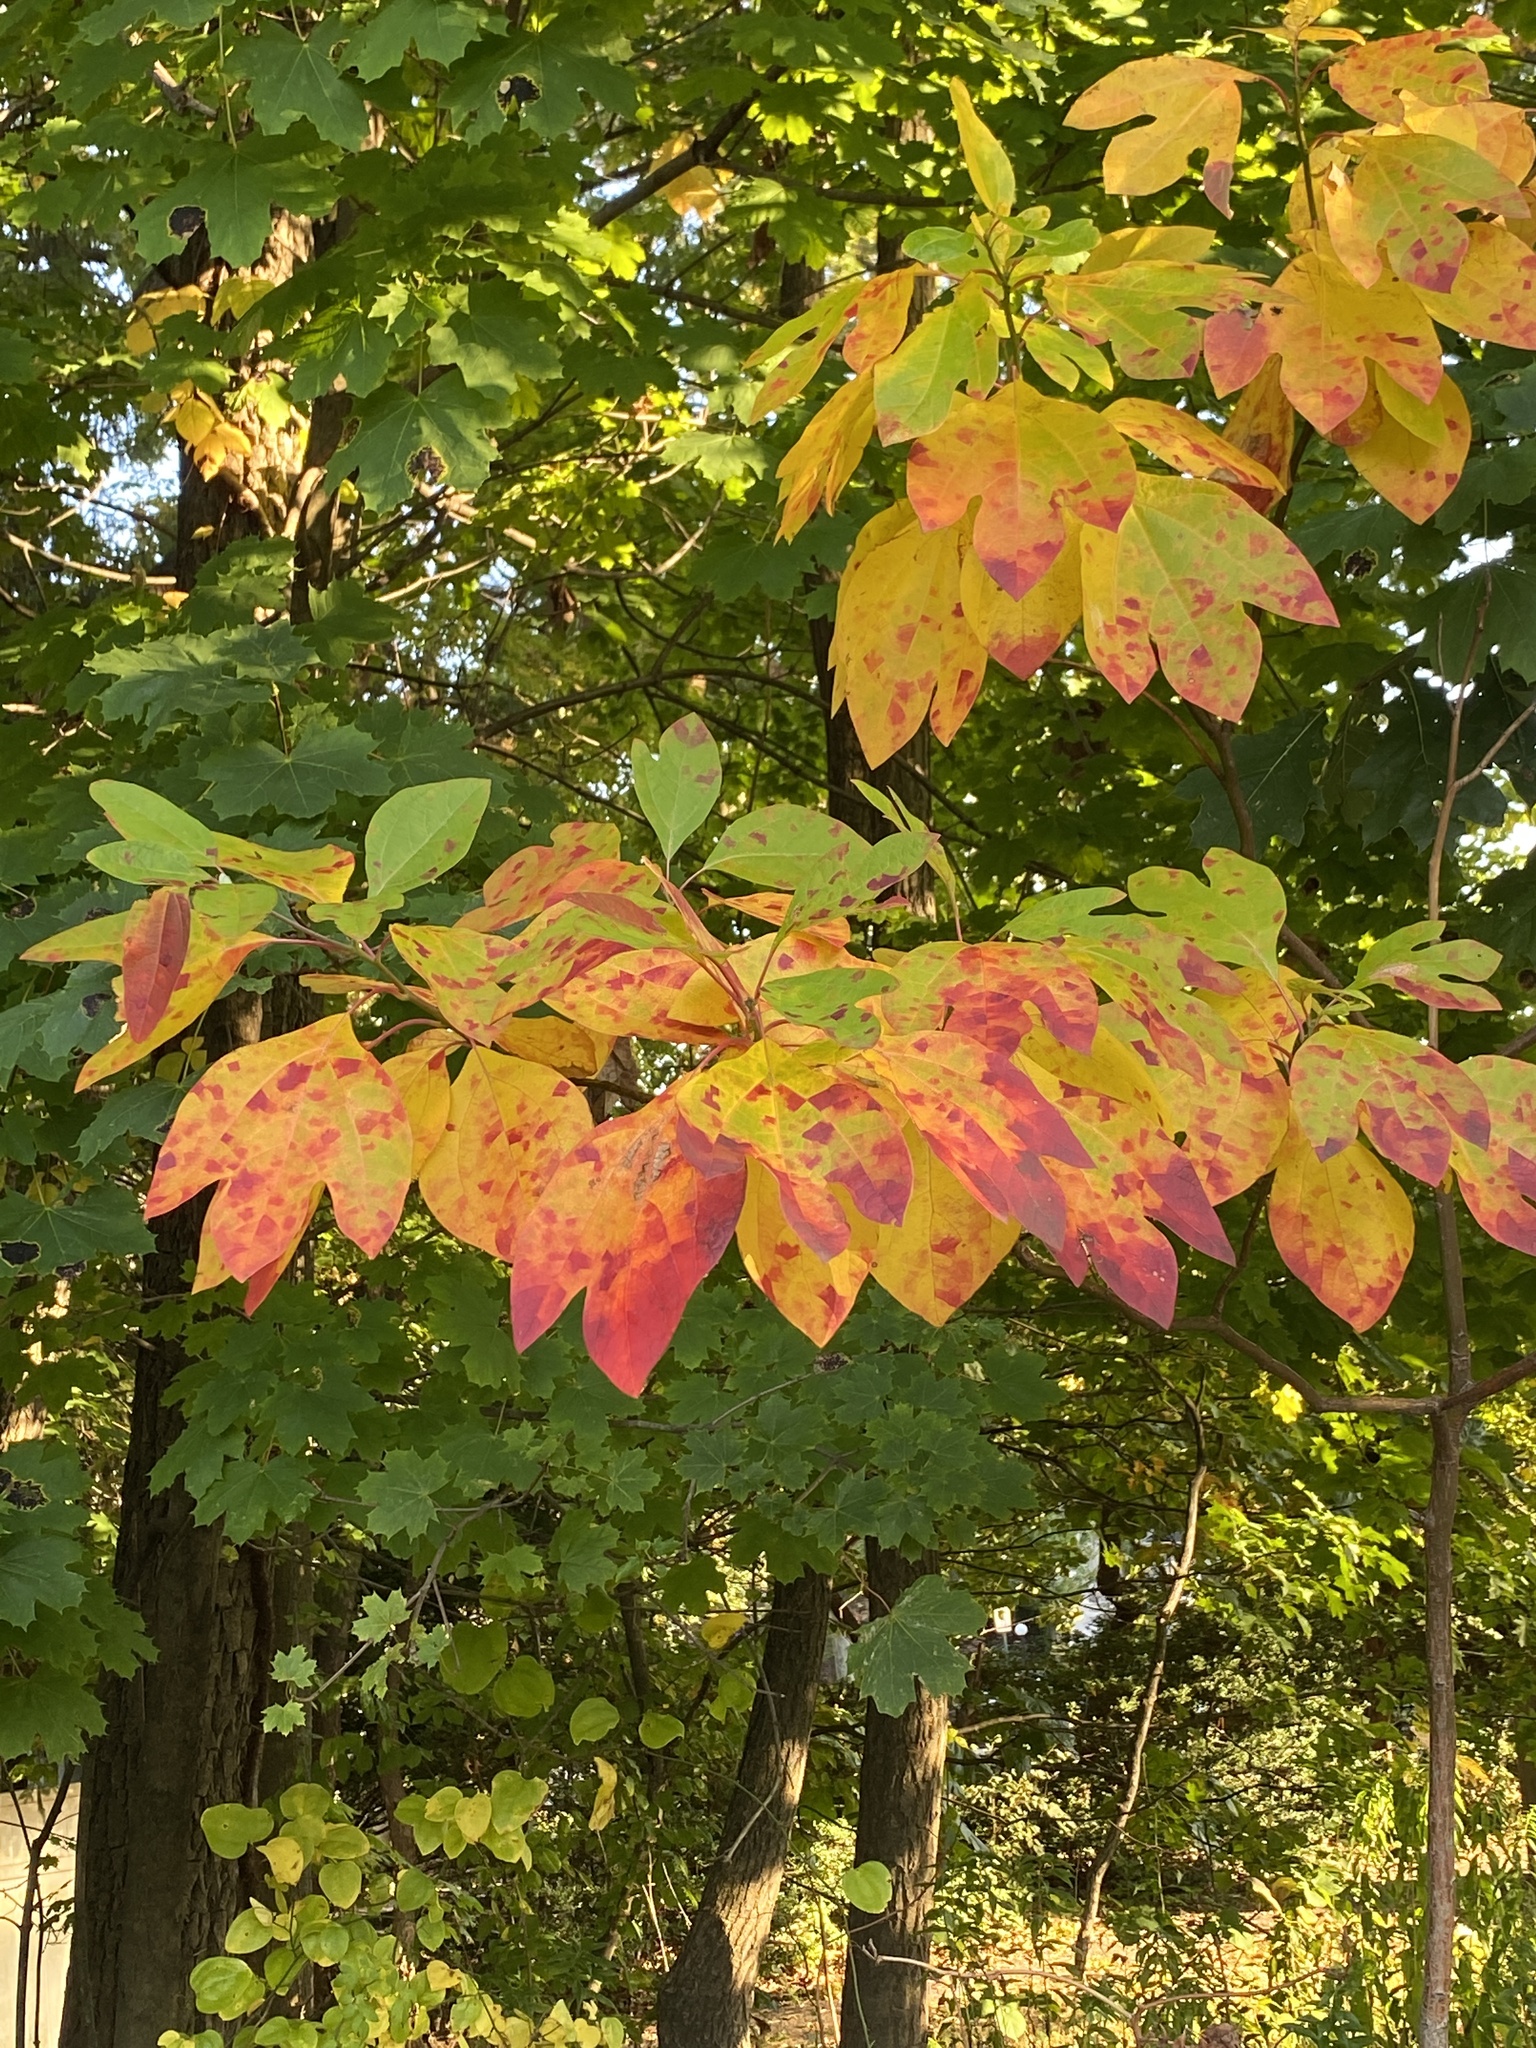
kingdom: Plantae
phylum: Tracheophyta
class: Magnoliopsida
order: Laurales
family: Lauraceae
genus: Sassafras
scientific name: Sassafras albidum
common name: Sassafras
